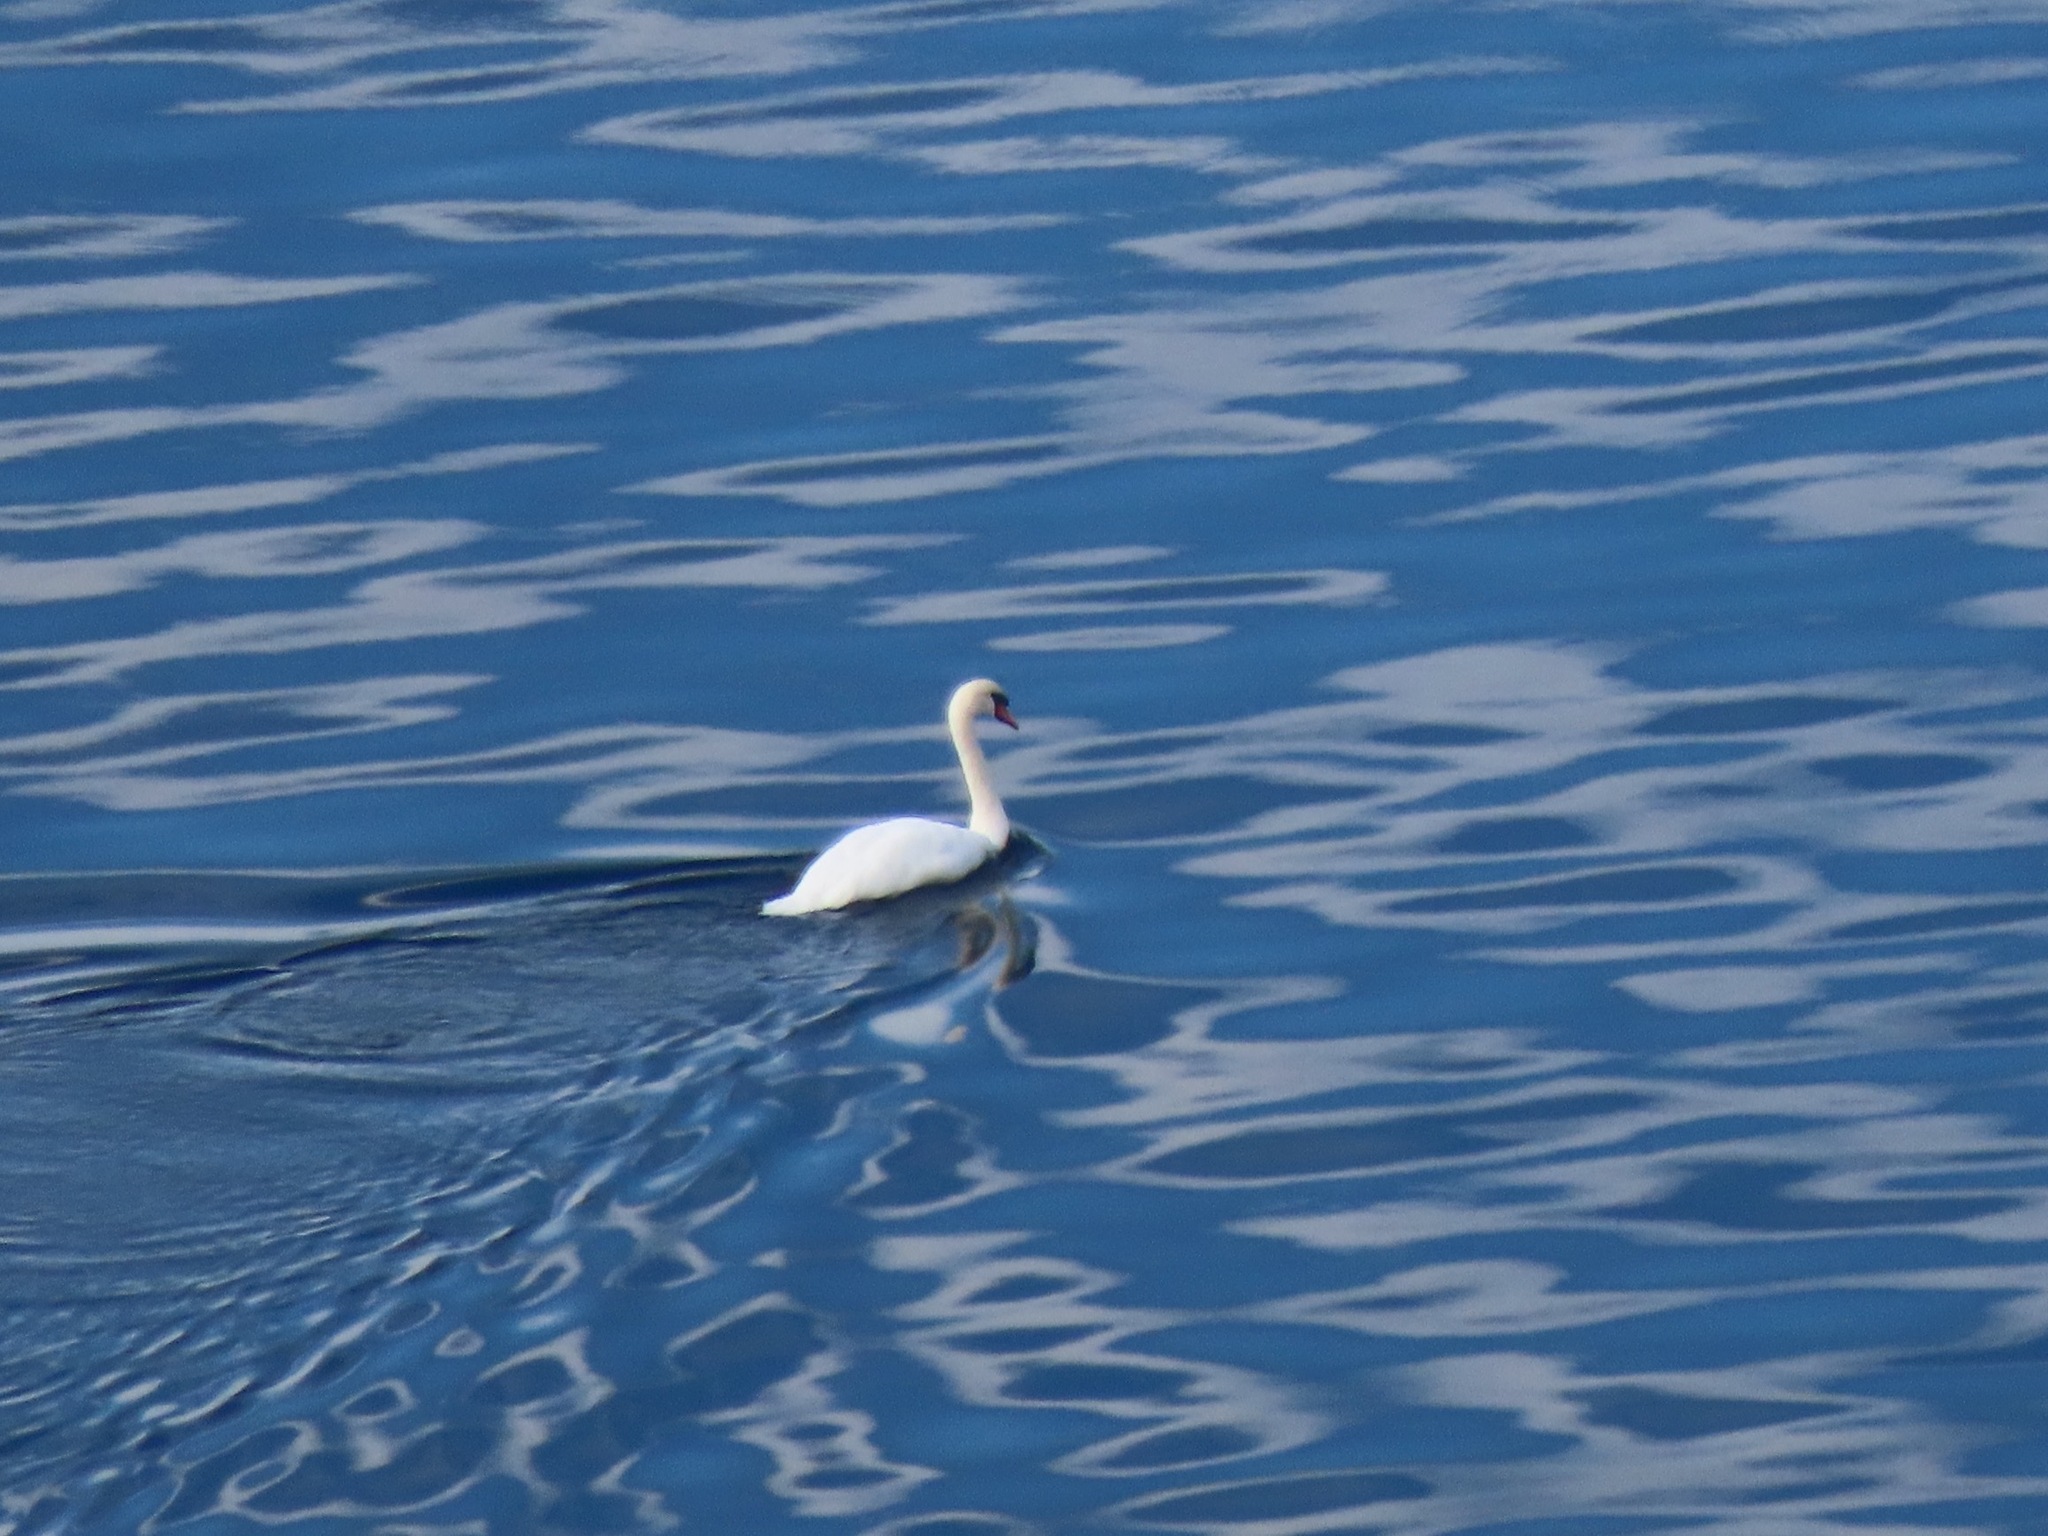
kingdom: Animalia
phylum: Chordata
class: Aves
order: Anseriformes
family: Anatidae
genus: Cygnus
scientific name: Cygnus olor
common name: Mute swan
